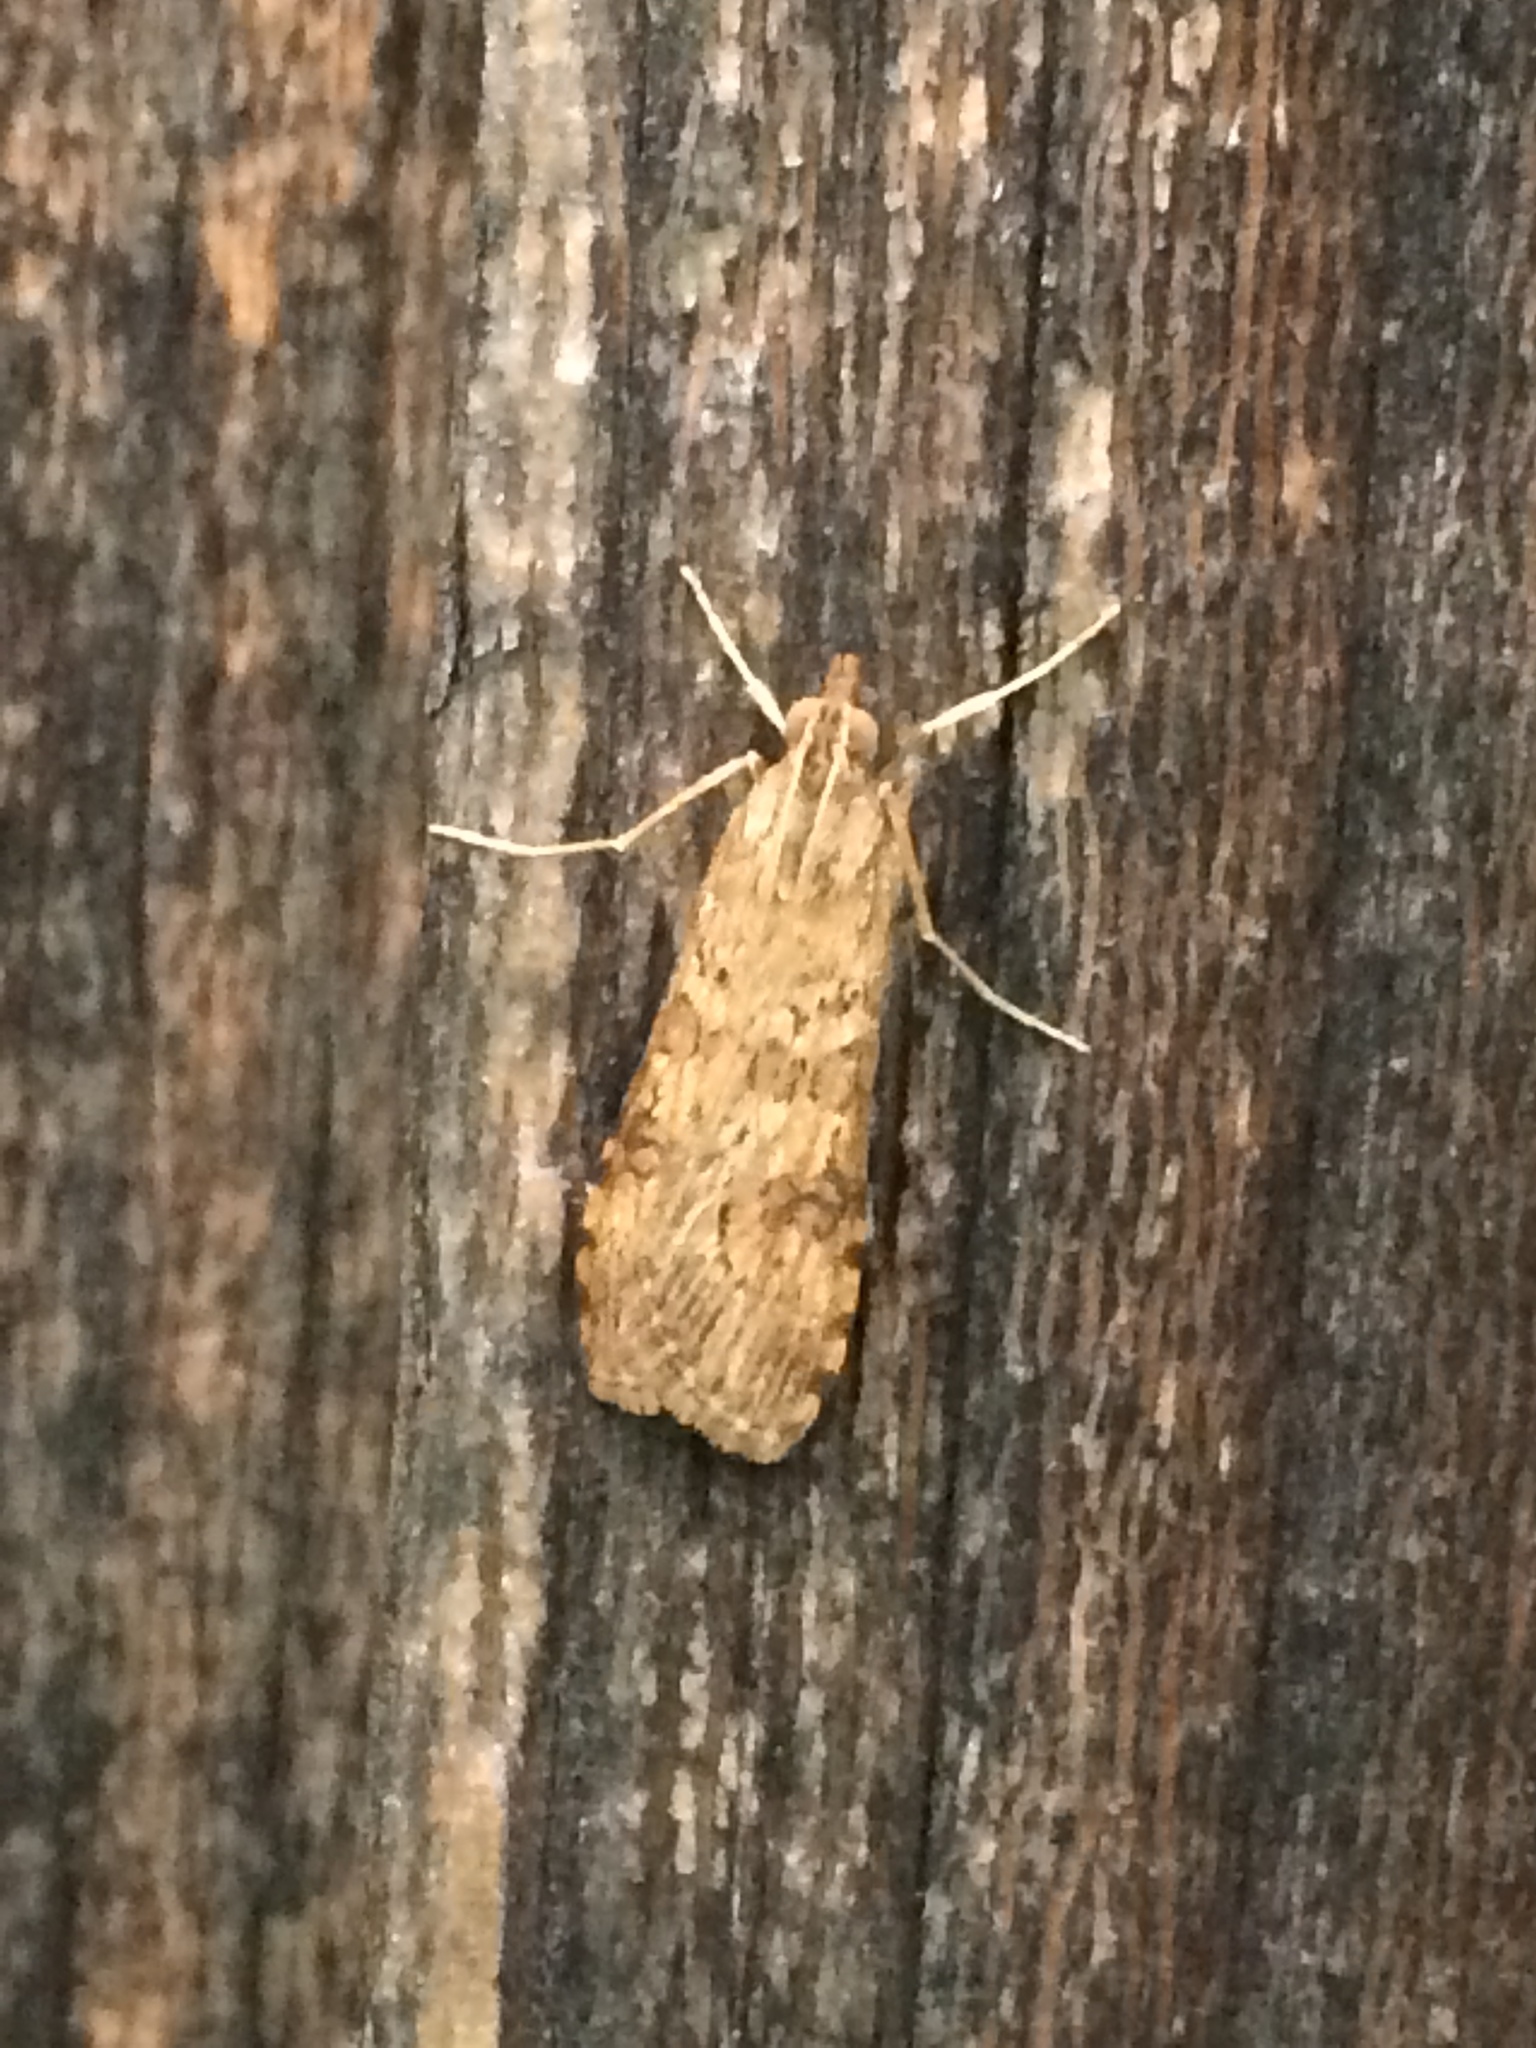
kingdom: Animalia
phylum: Arthropoda
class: Insecta
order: Lepidoptera
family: Crambidae
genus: Nomophila
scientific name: Nomophila nearctica
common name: American rush veneer
